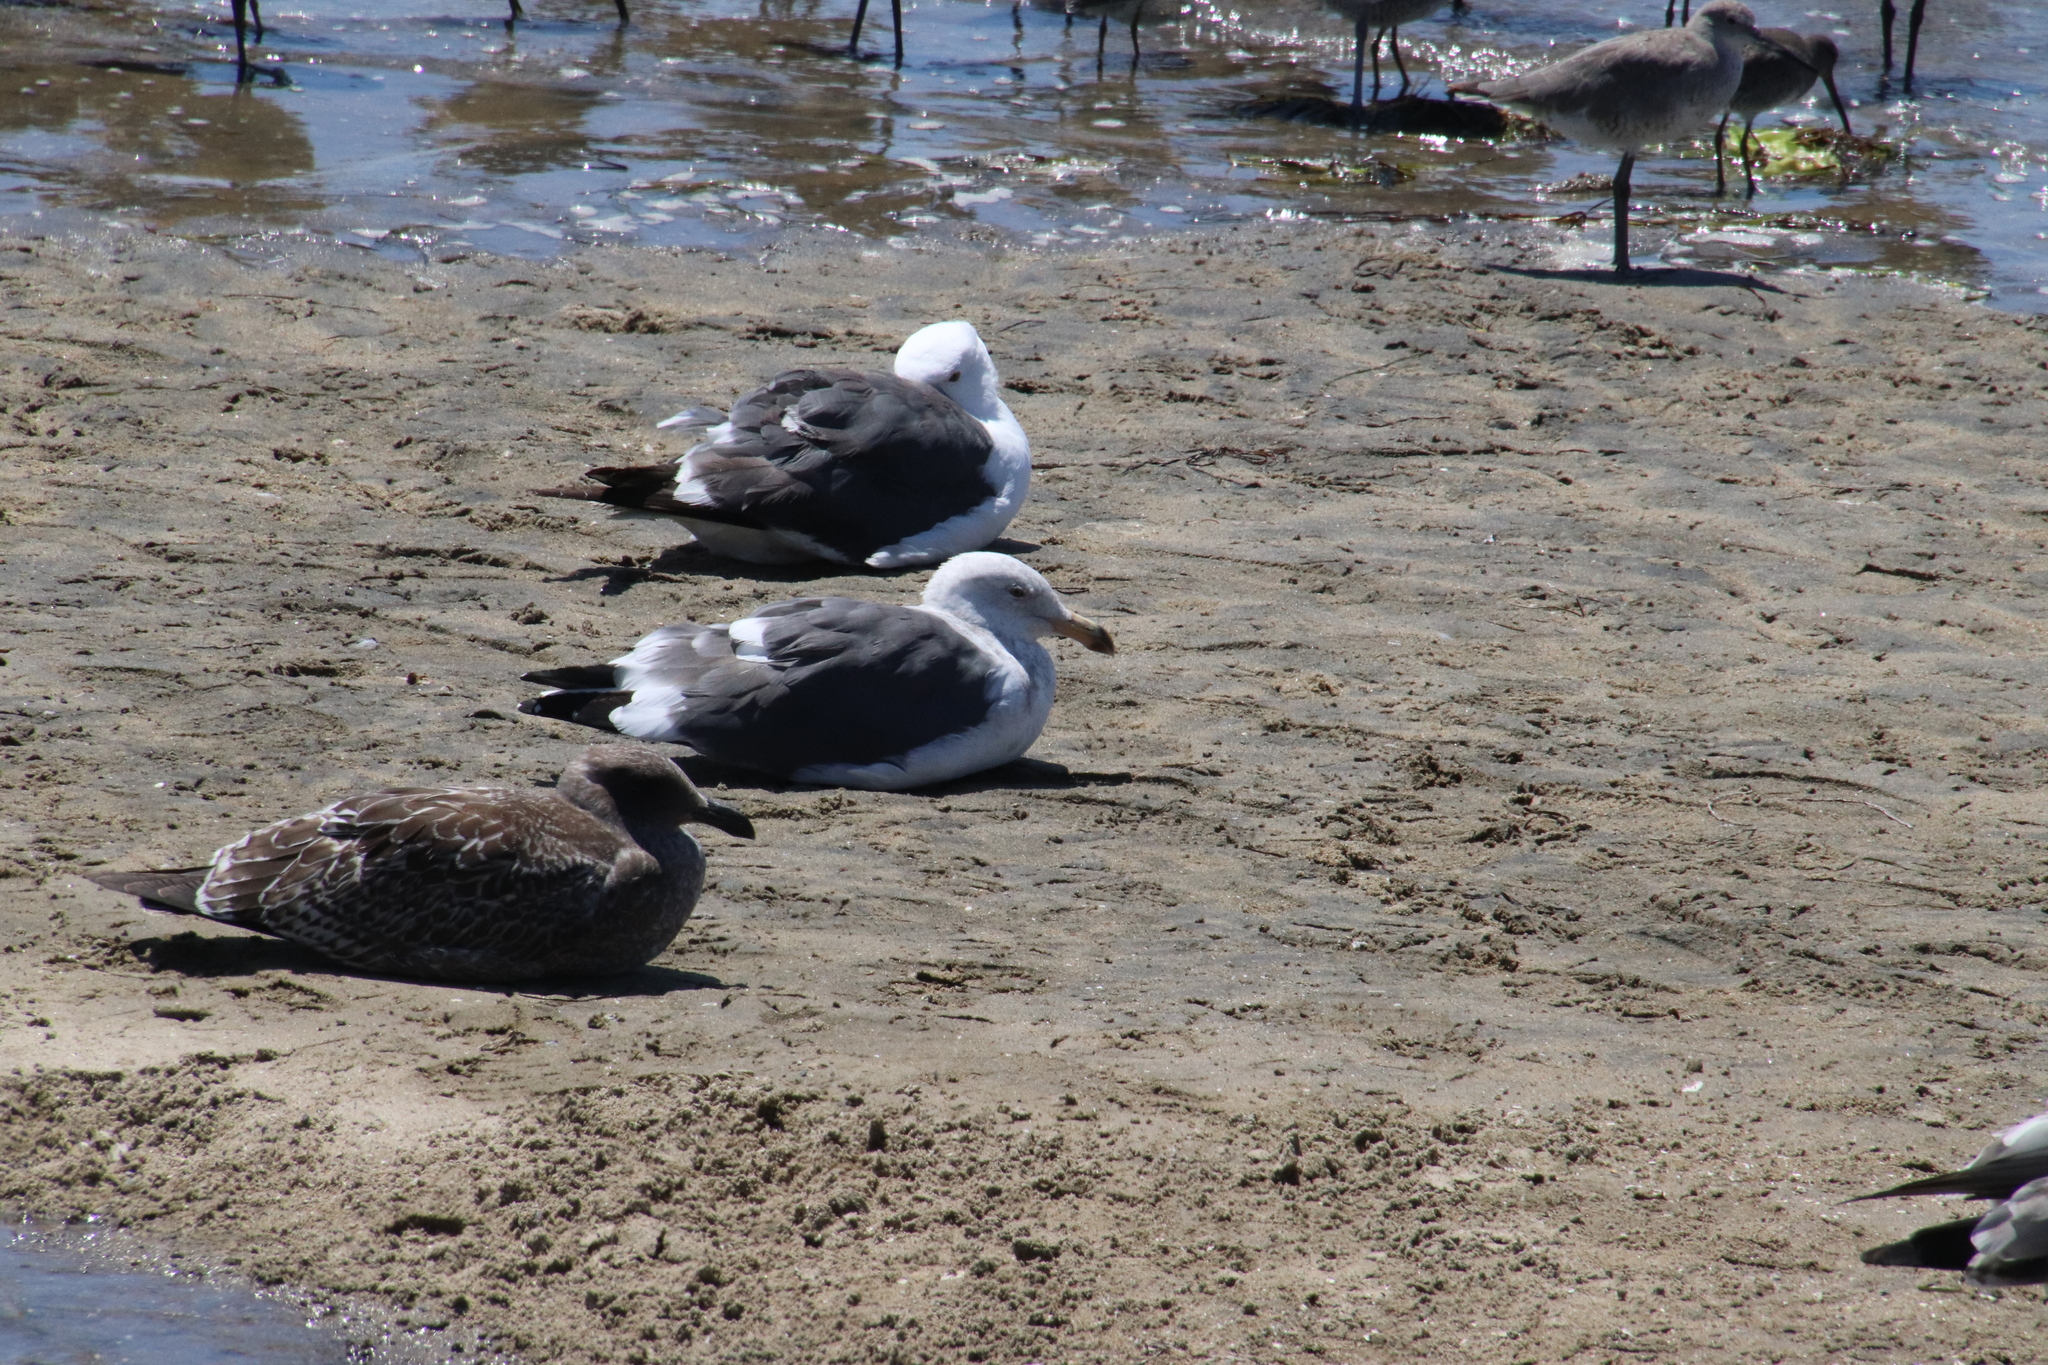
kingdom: Animalia
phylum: Chordata
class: Aves
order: Charadriiformes
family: Laridae
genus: Larus
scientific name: Larus occidentalis
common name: Western gull
